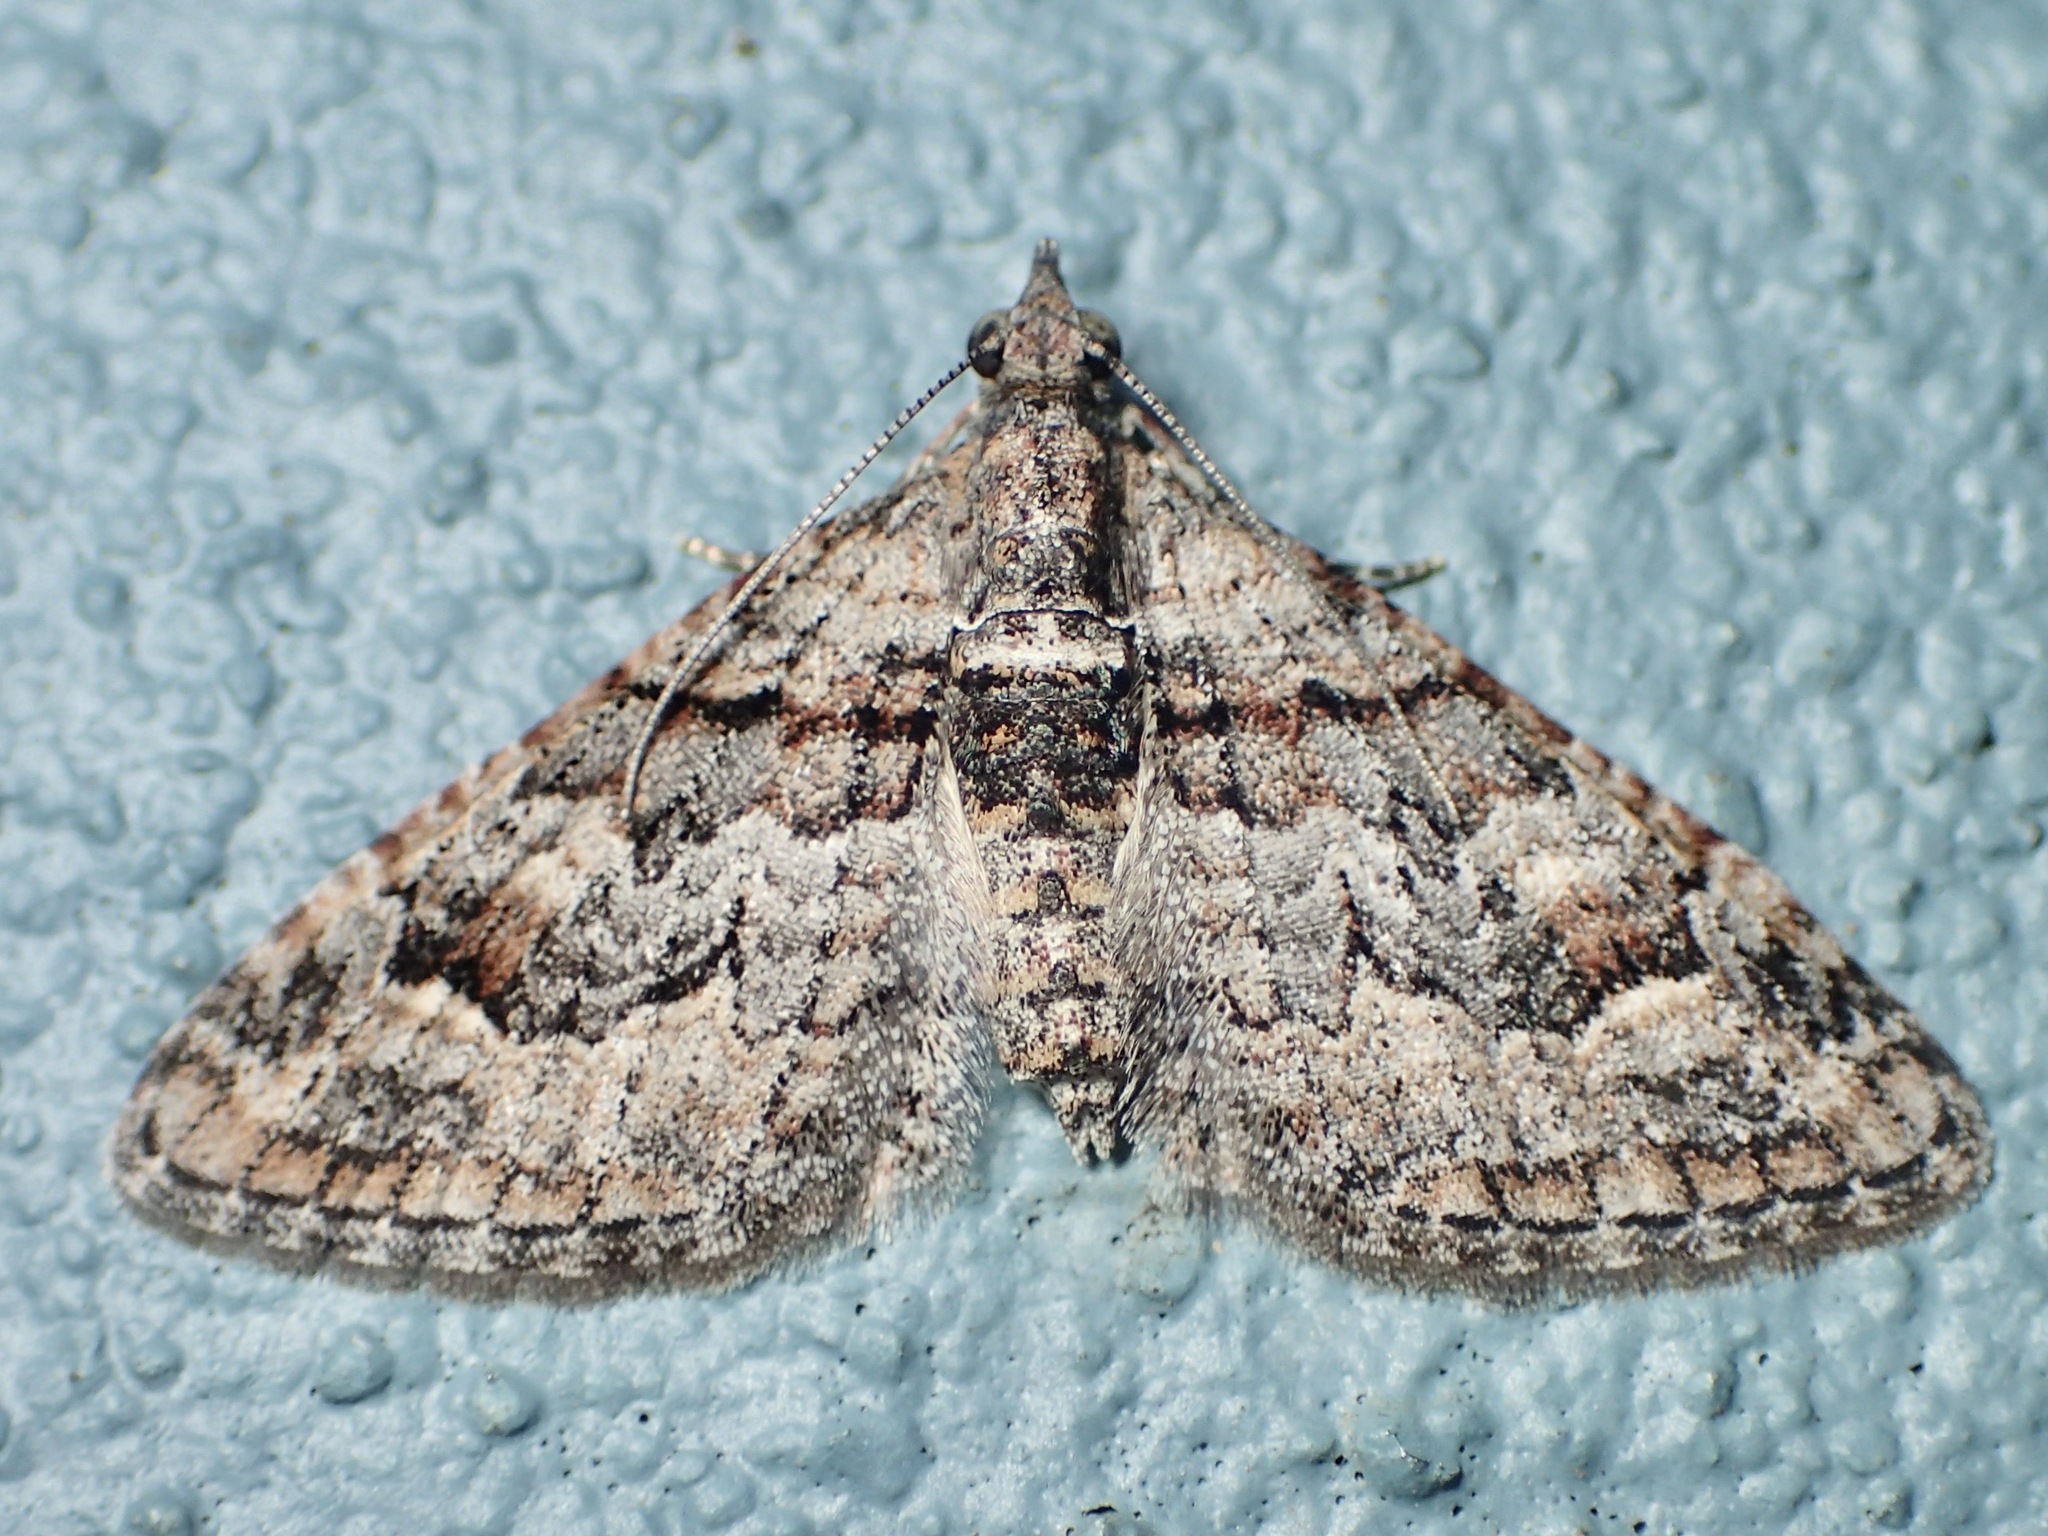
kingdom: Animalia
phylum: Arthropoda
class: Insecta
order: Lepidoptera
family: Geometridae
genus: Phrissogonus
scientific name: Phrissogonus laticostata
